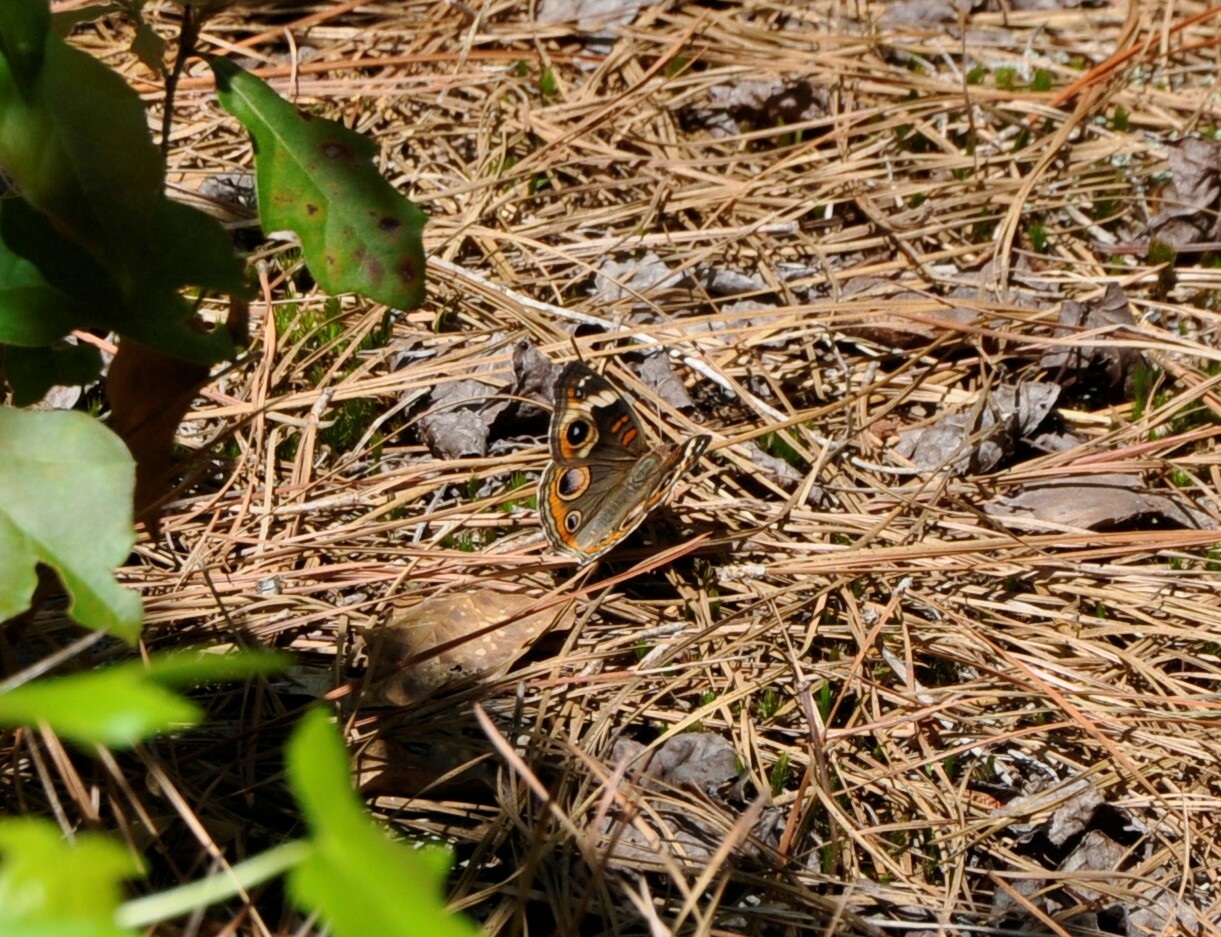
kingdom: Animalia
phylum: Arthropoda
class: Insecta
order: Lepidoptera
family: Nymphalidae
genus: Junonia
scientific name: Junonia coenia
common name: Common buckeye
